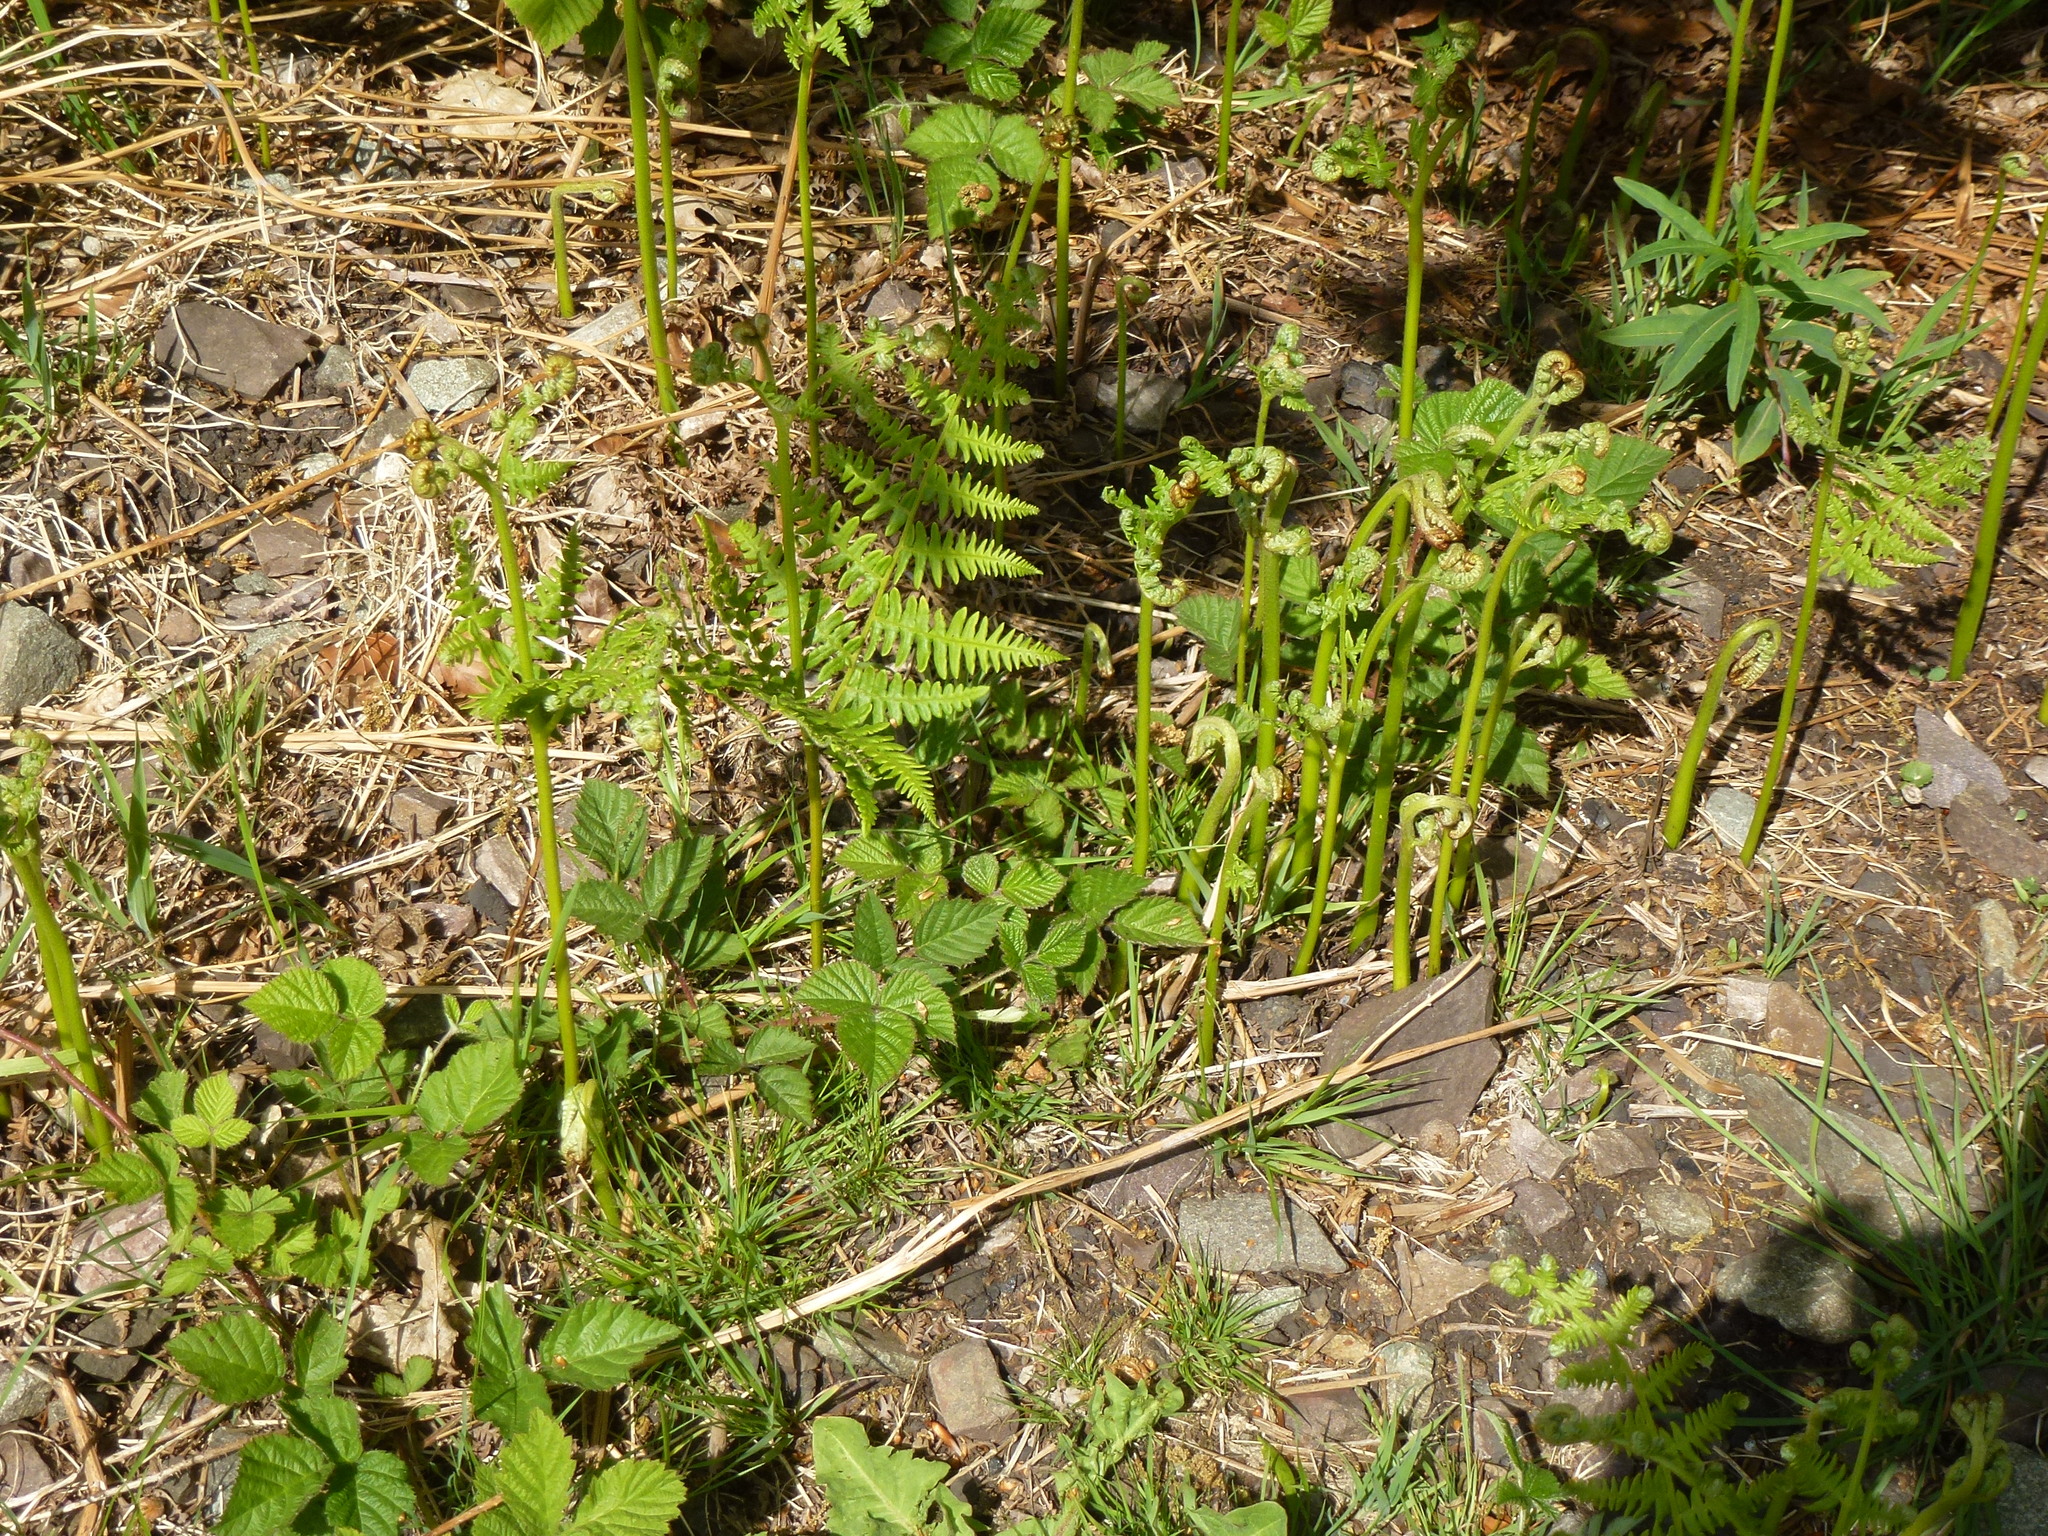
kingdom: Plantae
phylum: Tracheophyta
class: Polypodiopsida
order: Polypodiales
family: Dennstaedtiaceae
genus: Pteridium
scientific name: Pteridium aquilinum
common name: Bracken
